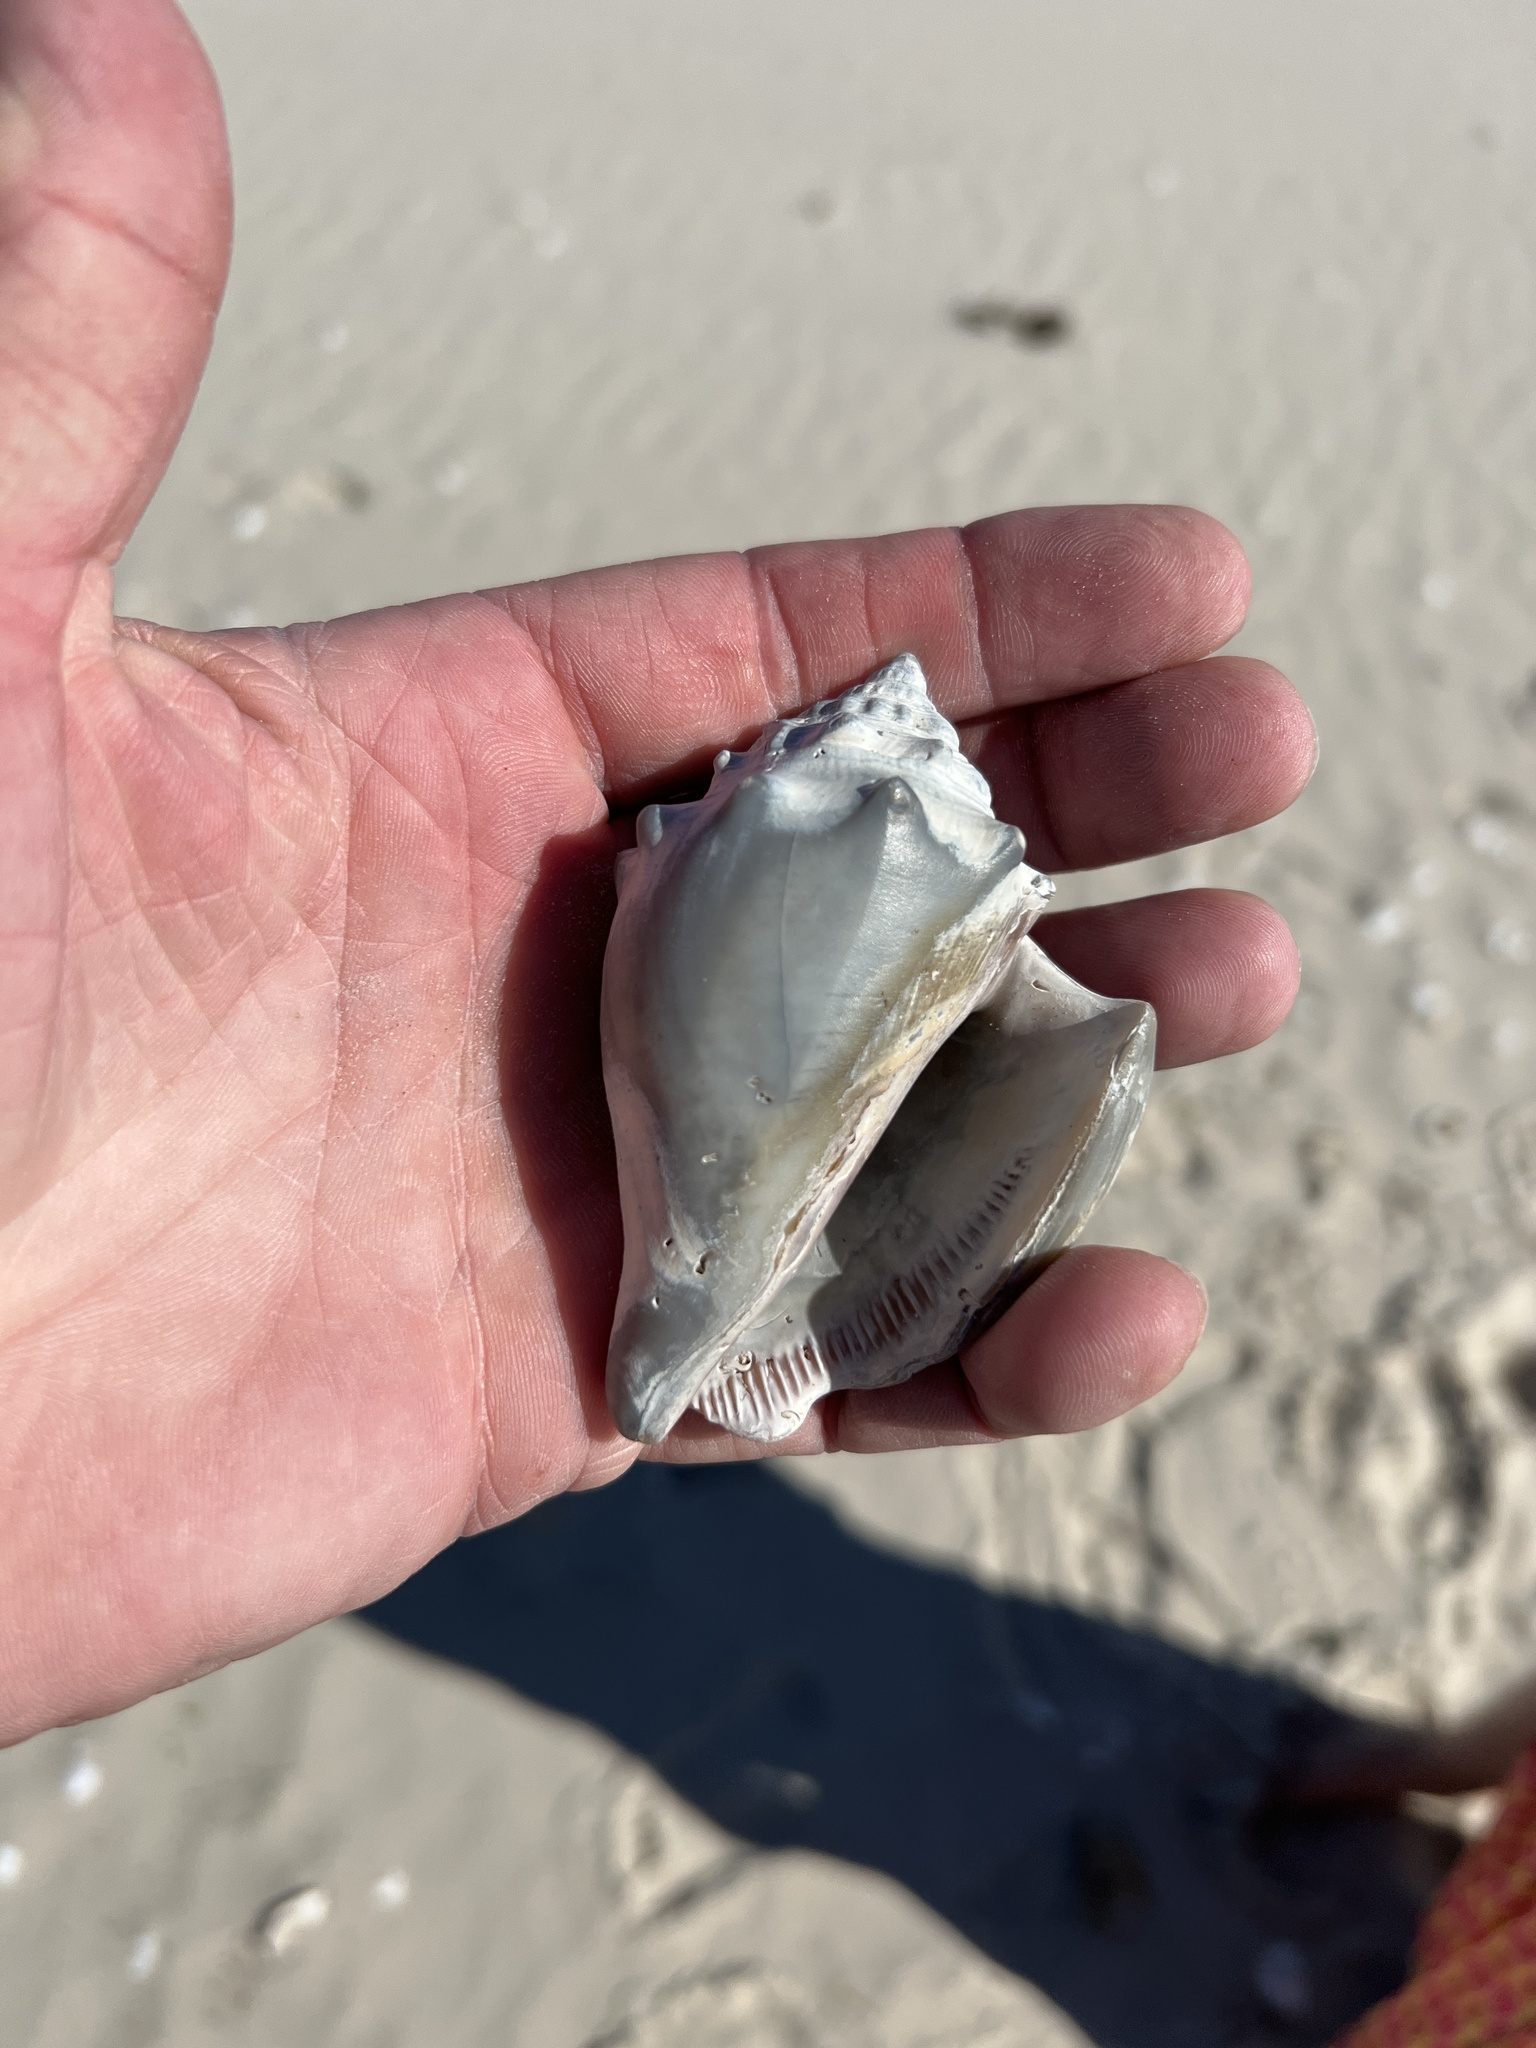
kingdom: Animalia
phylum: Mollusca
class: Gastropoda
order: Littorinimorpha
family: Strombidae
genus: Strombus
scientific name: Strombus alatus
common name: Florida fighting conch
